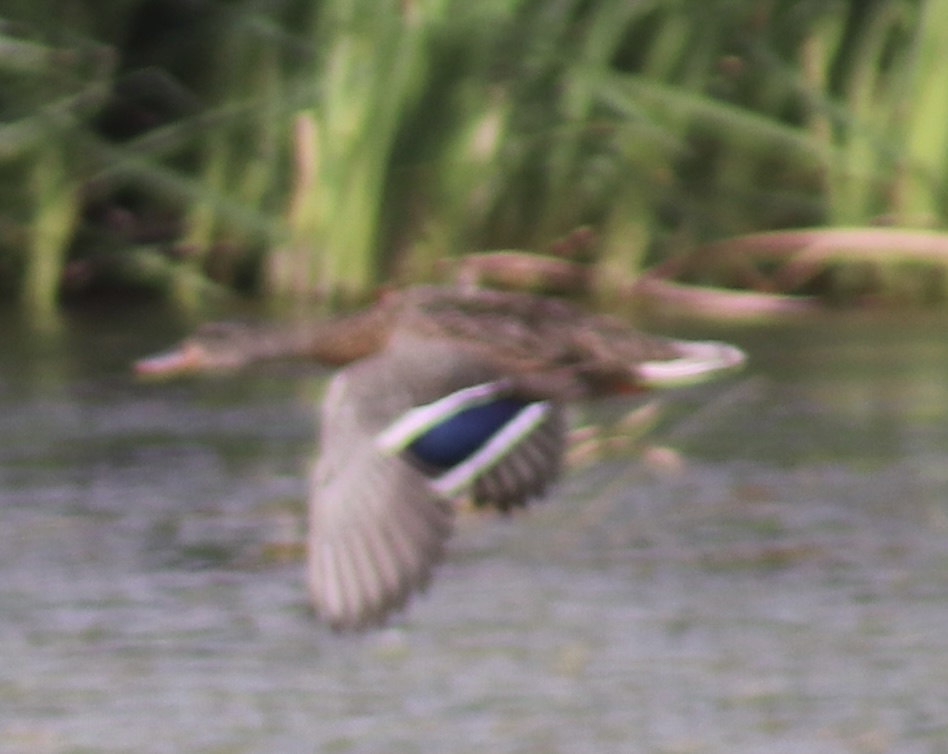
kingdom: Animalia
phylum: Chordata
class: Aves
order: Anseriformes
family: Anatidae
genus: Anas
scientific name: Anas platyrhynchos
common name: Mallard
